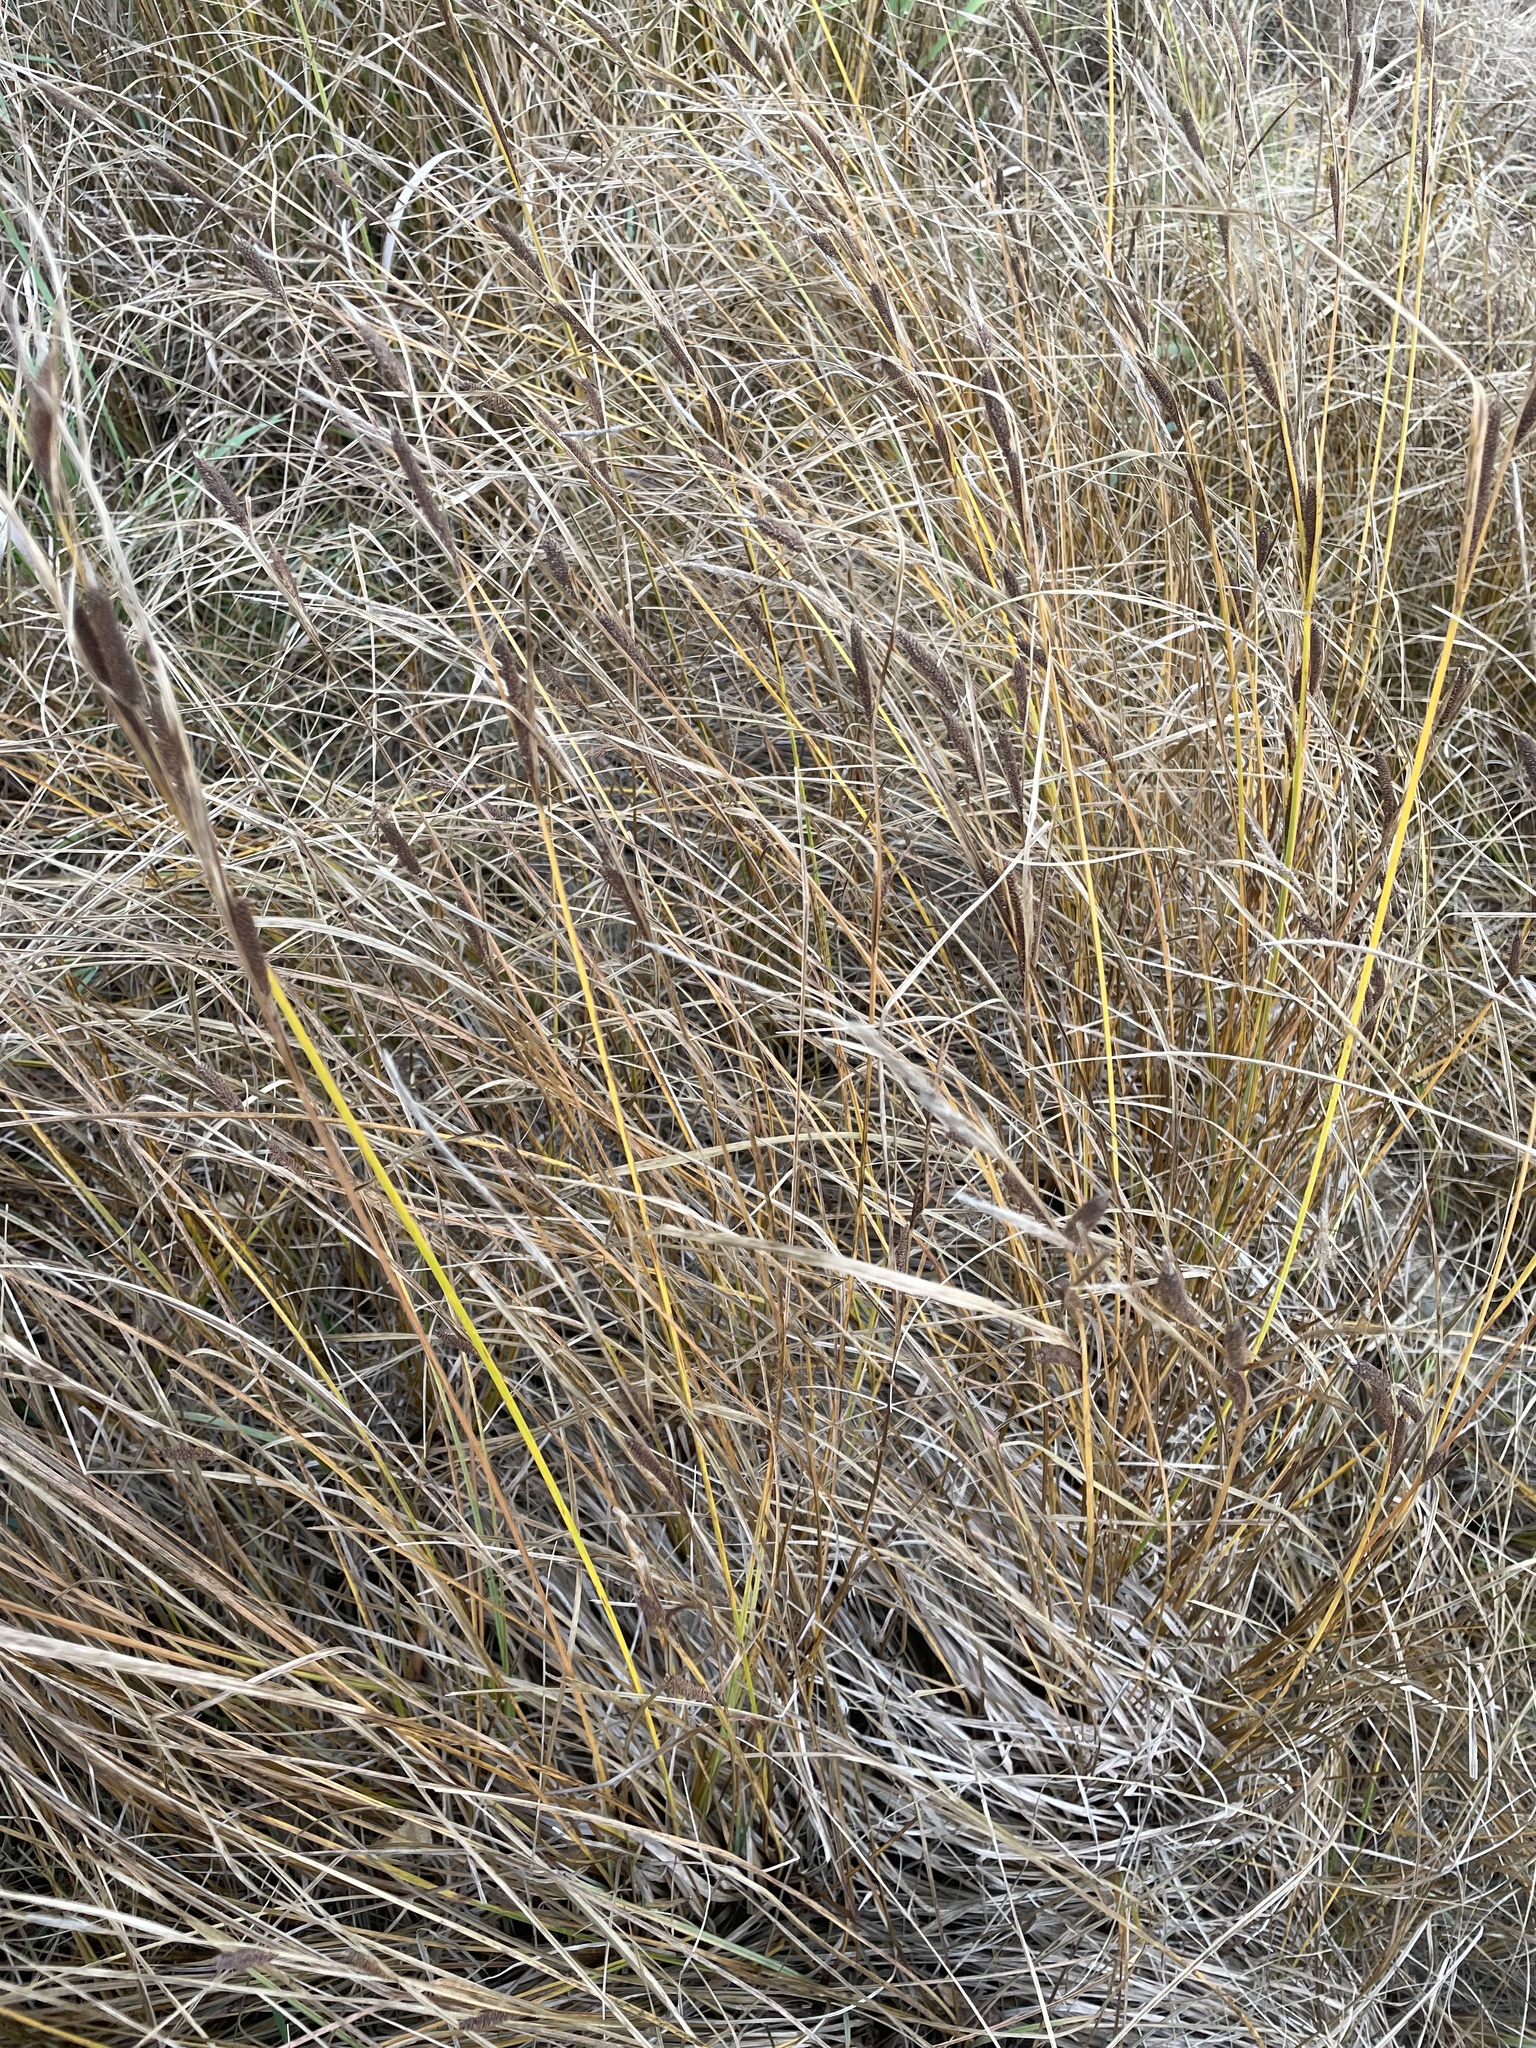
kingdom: Plantae
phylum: Tracheophyta
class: Liliopsida
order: Poales
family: Cyperaceae
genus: Carex
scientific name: Carex aquatilis
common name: Water sedge
